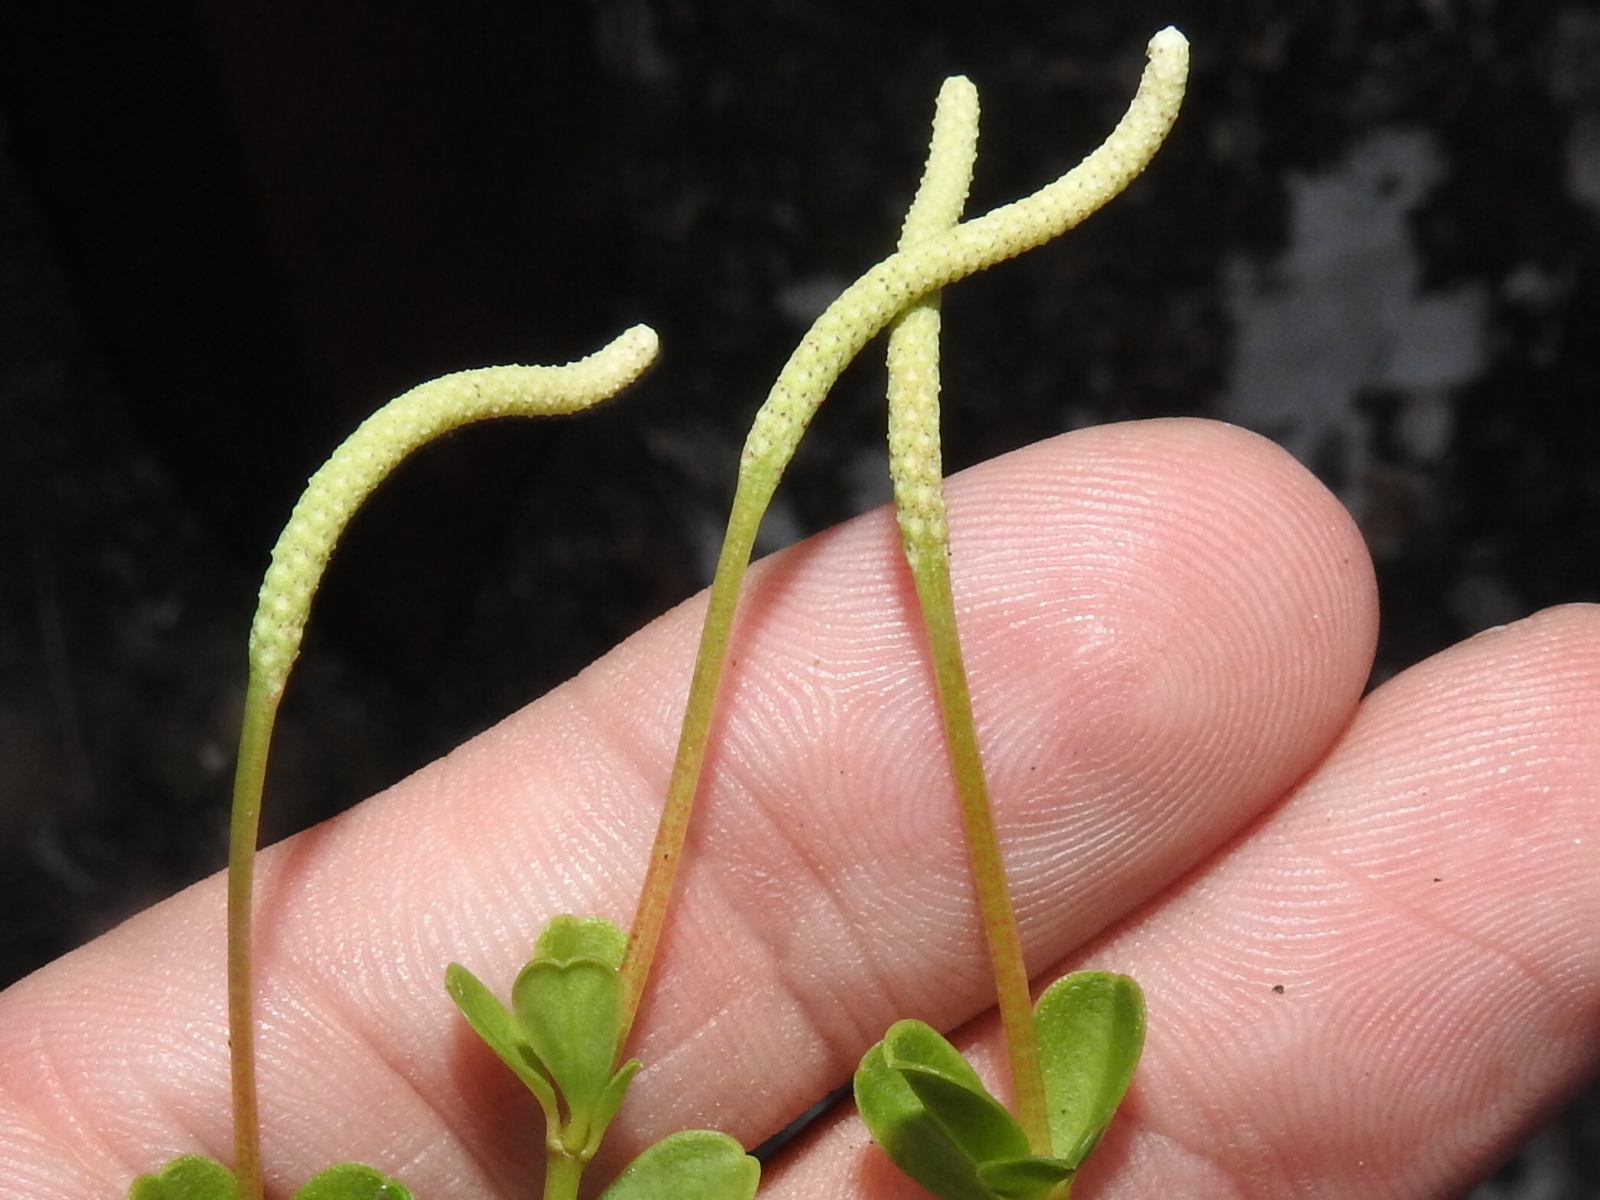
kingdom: Plantae
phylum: Tracheophyta
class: Magnoliopsida
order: Piperales
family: Piperaceae
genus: Peperomia
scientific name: Peperomia quadrifolia
